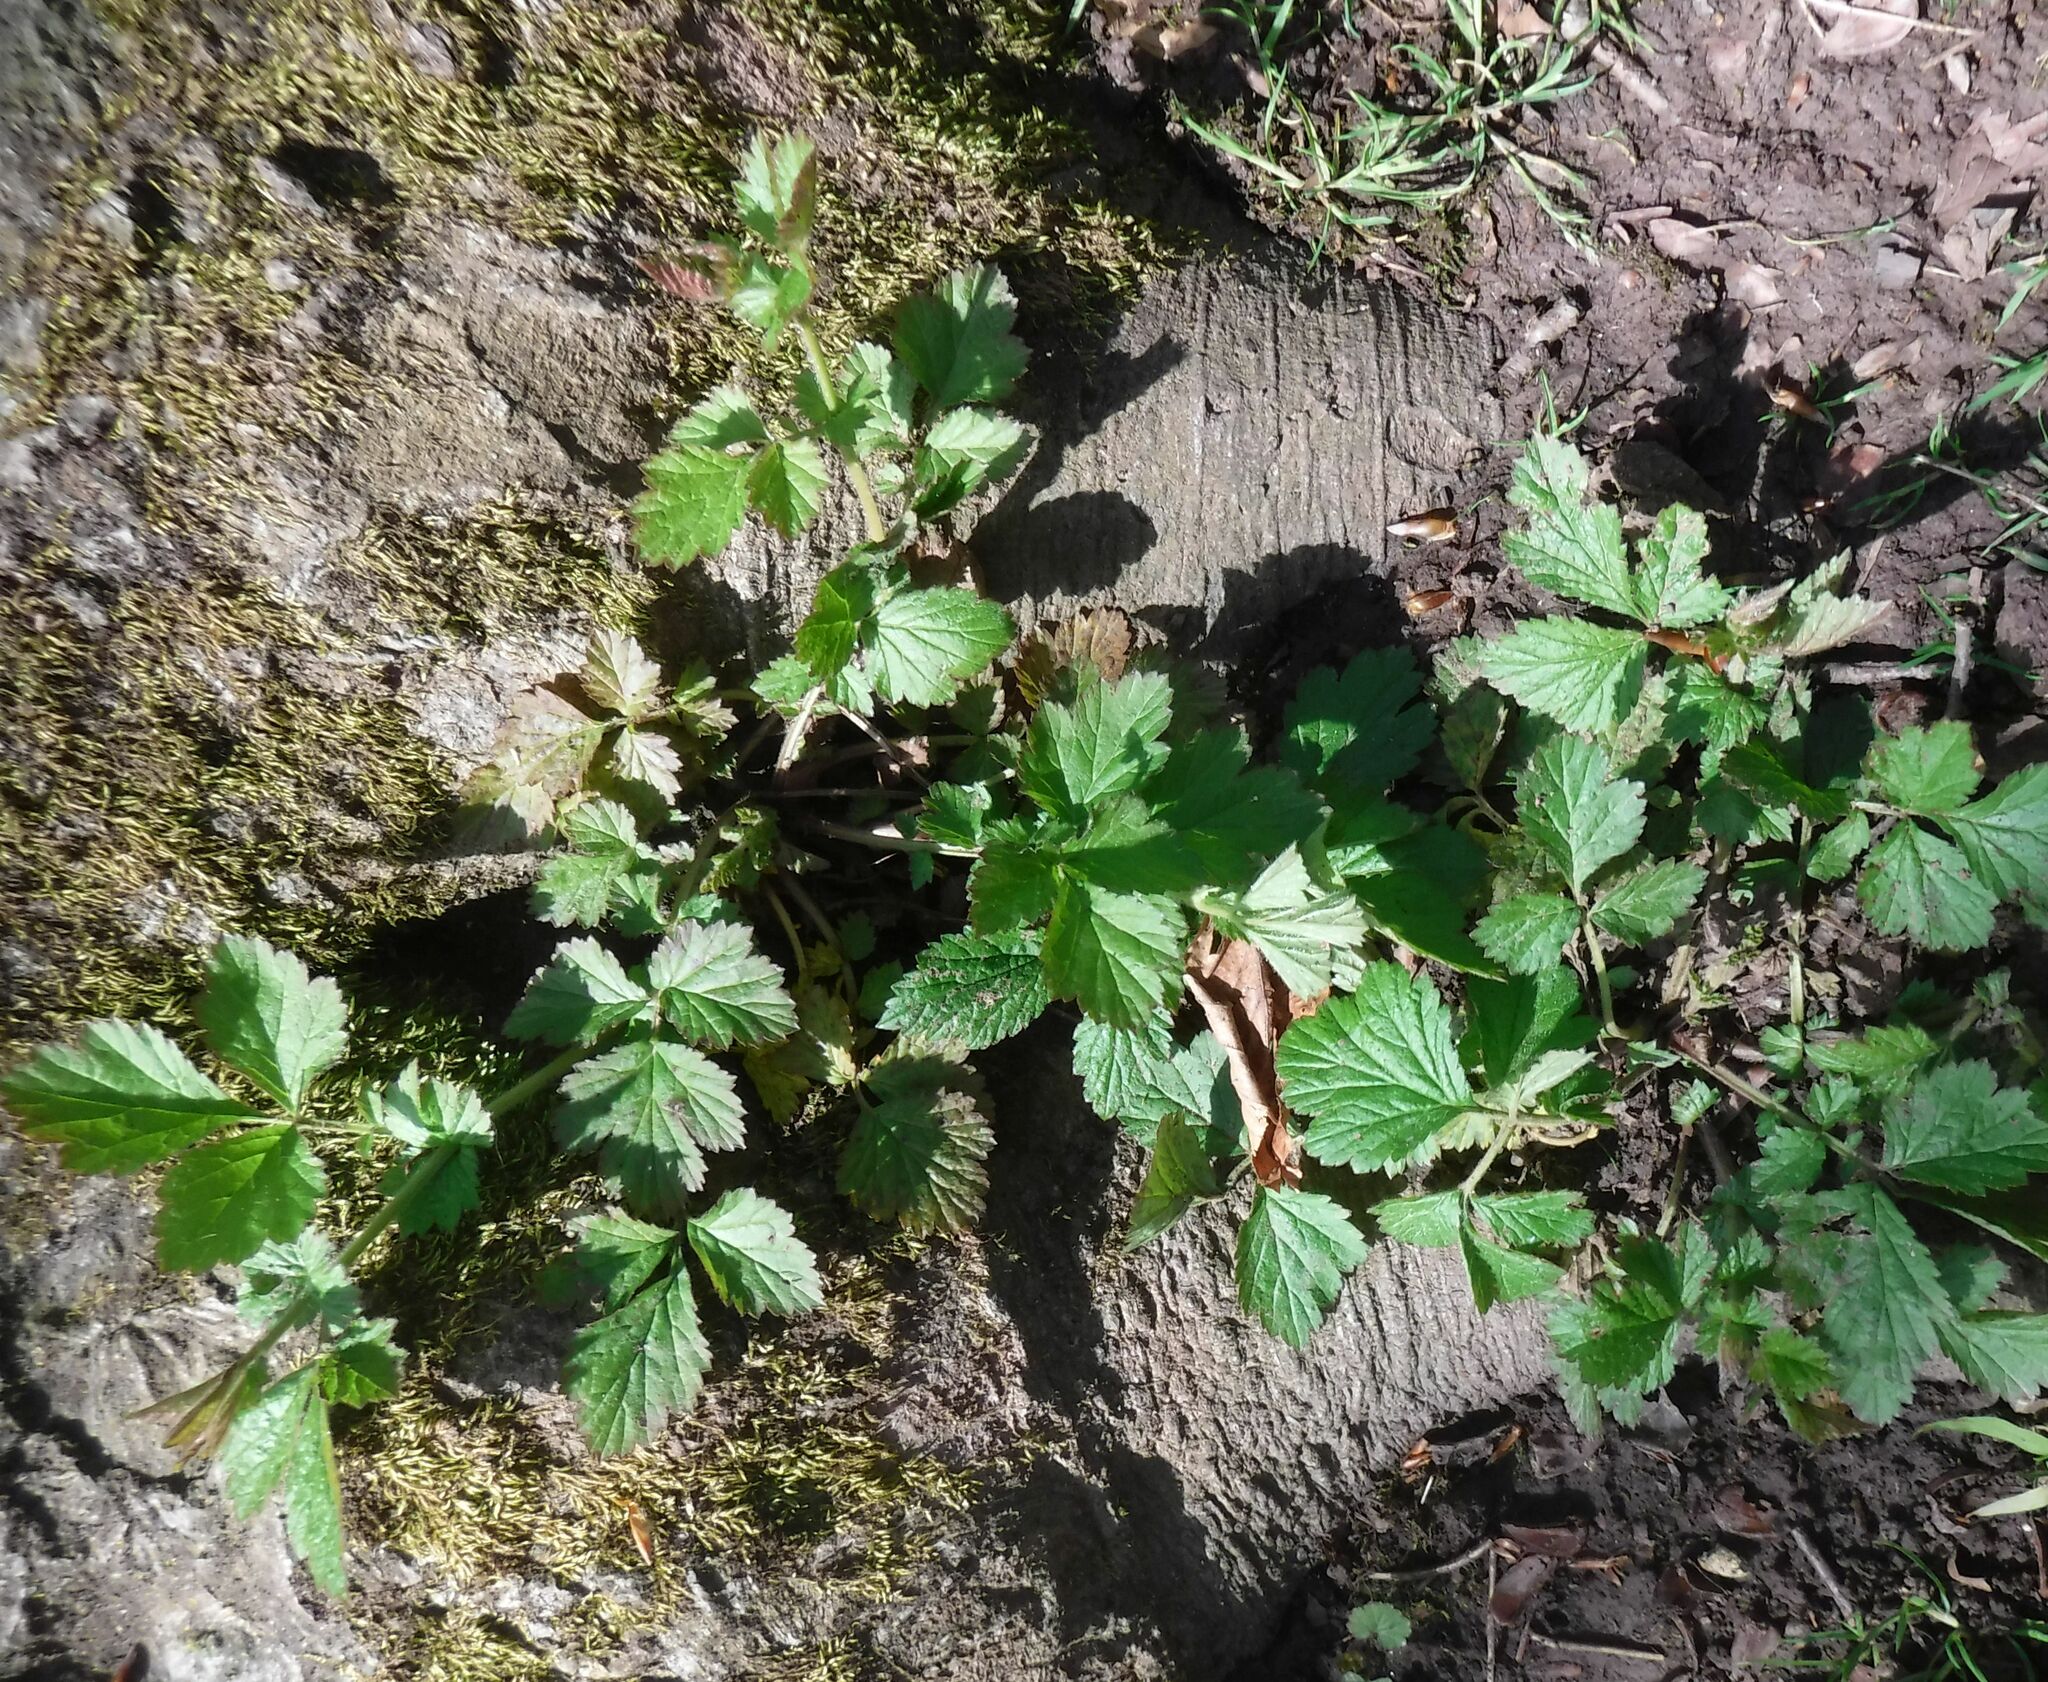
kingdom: Plantae
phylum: Tracheophyta
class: Magnoliopsida
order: Rosales
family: Rosaceae
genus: Geum
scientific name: Geum urbanum
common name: Wood avens
